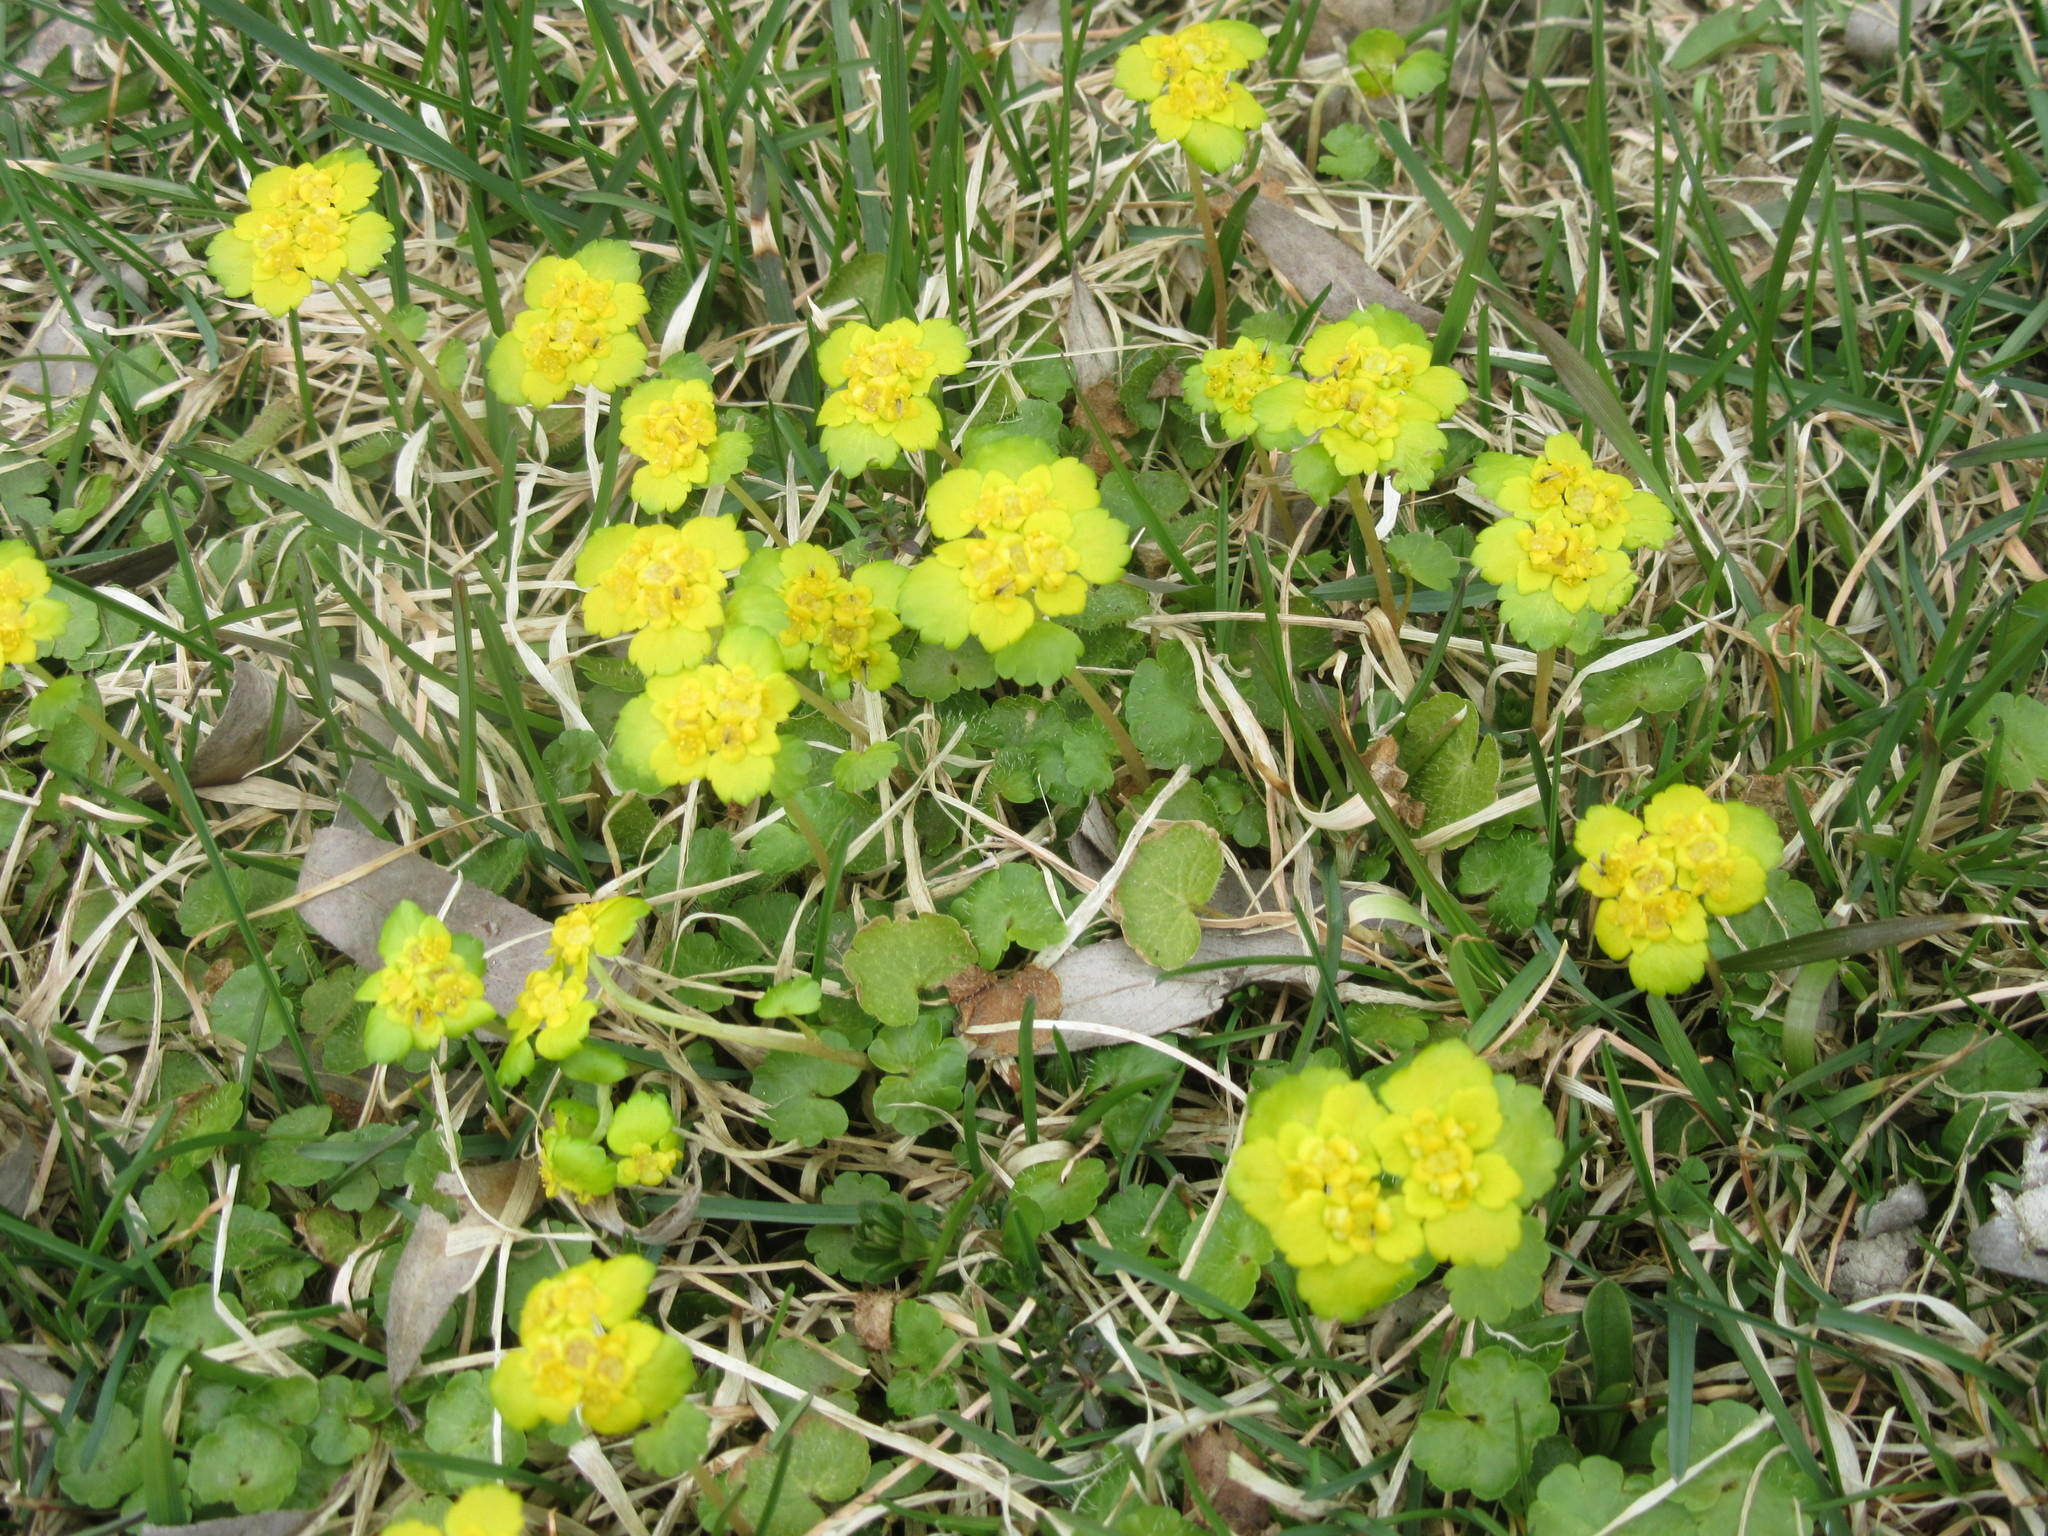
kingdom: Plantae
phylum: Tracheophyta
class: Magnoliopsida
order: Saxifragales
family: Saxifragaceae
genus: Chrysosplenium
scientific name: Chrysosplenium alternifolium
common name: Alternate-leaved golden-saxifrage
